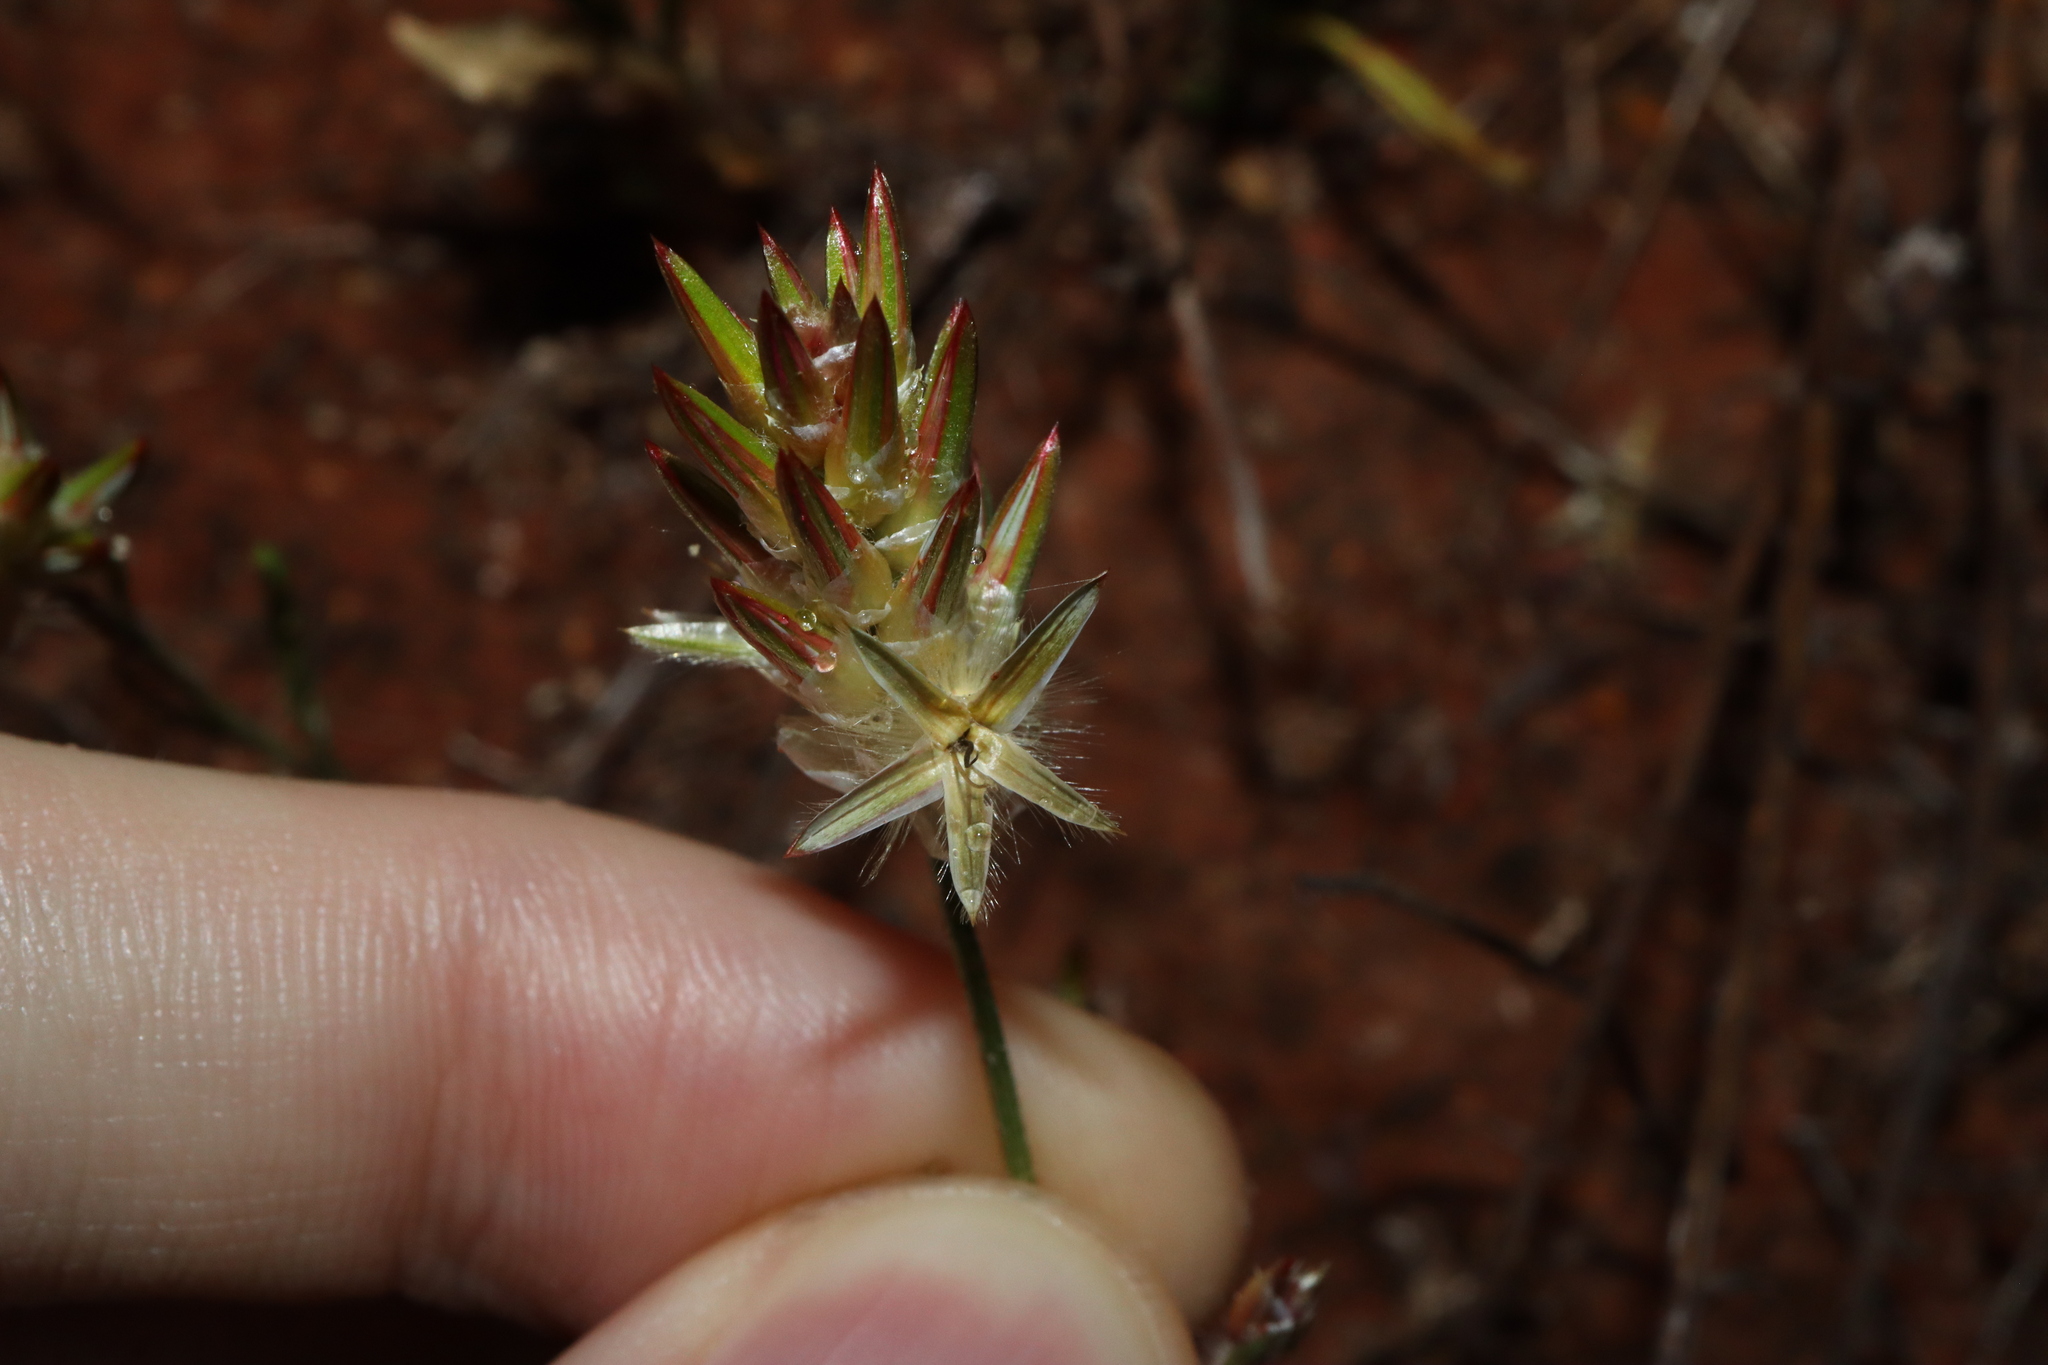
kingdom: Plantae
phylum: Tracheophyta
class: Magnoliopsida
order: Caryophyllales
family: Amaranthaceae
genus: Ptilotus
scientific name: Ptilotus modestus
